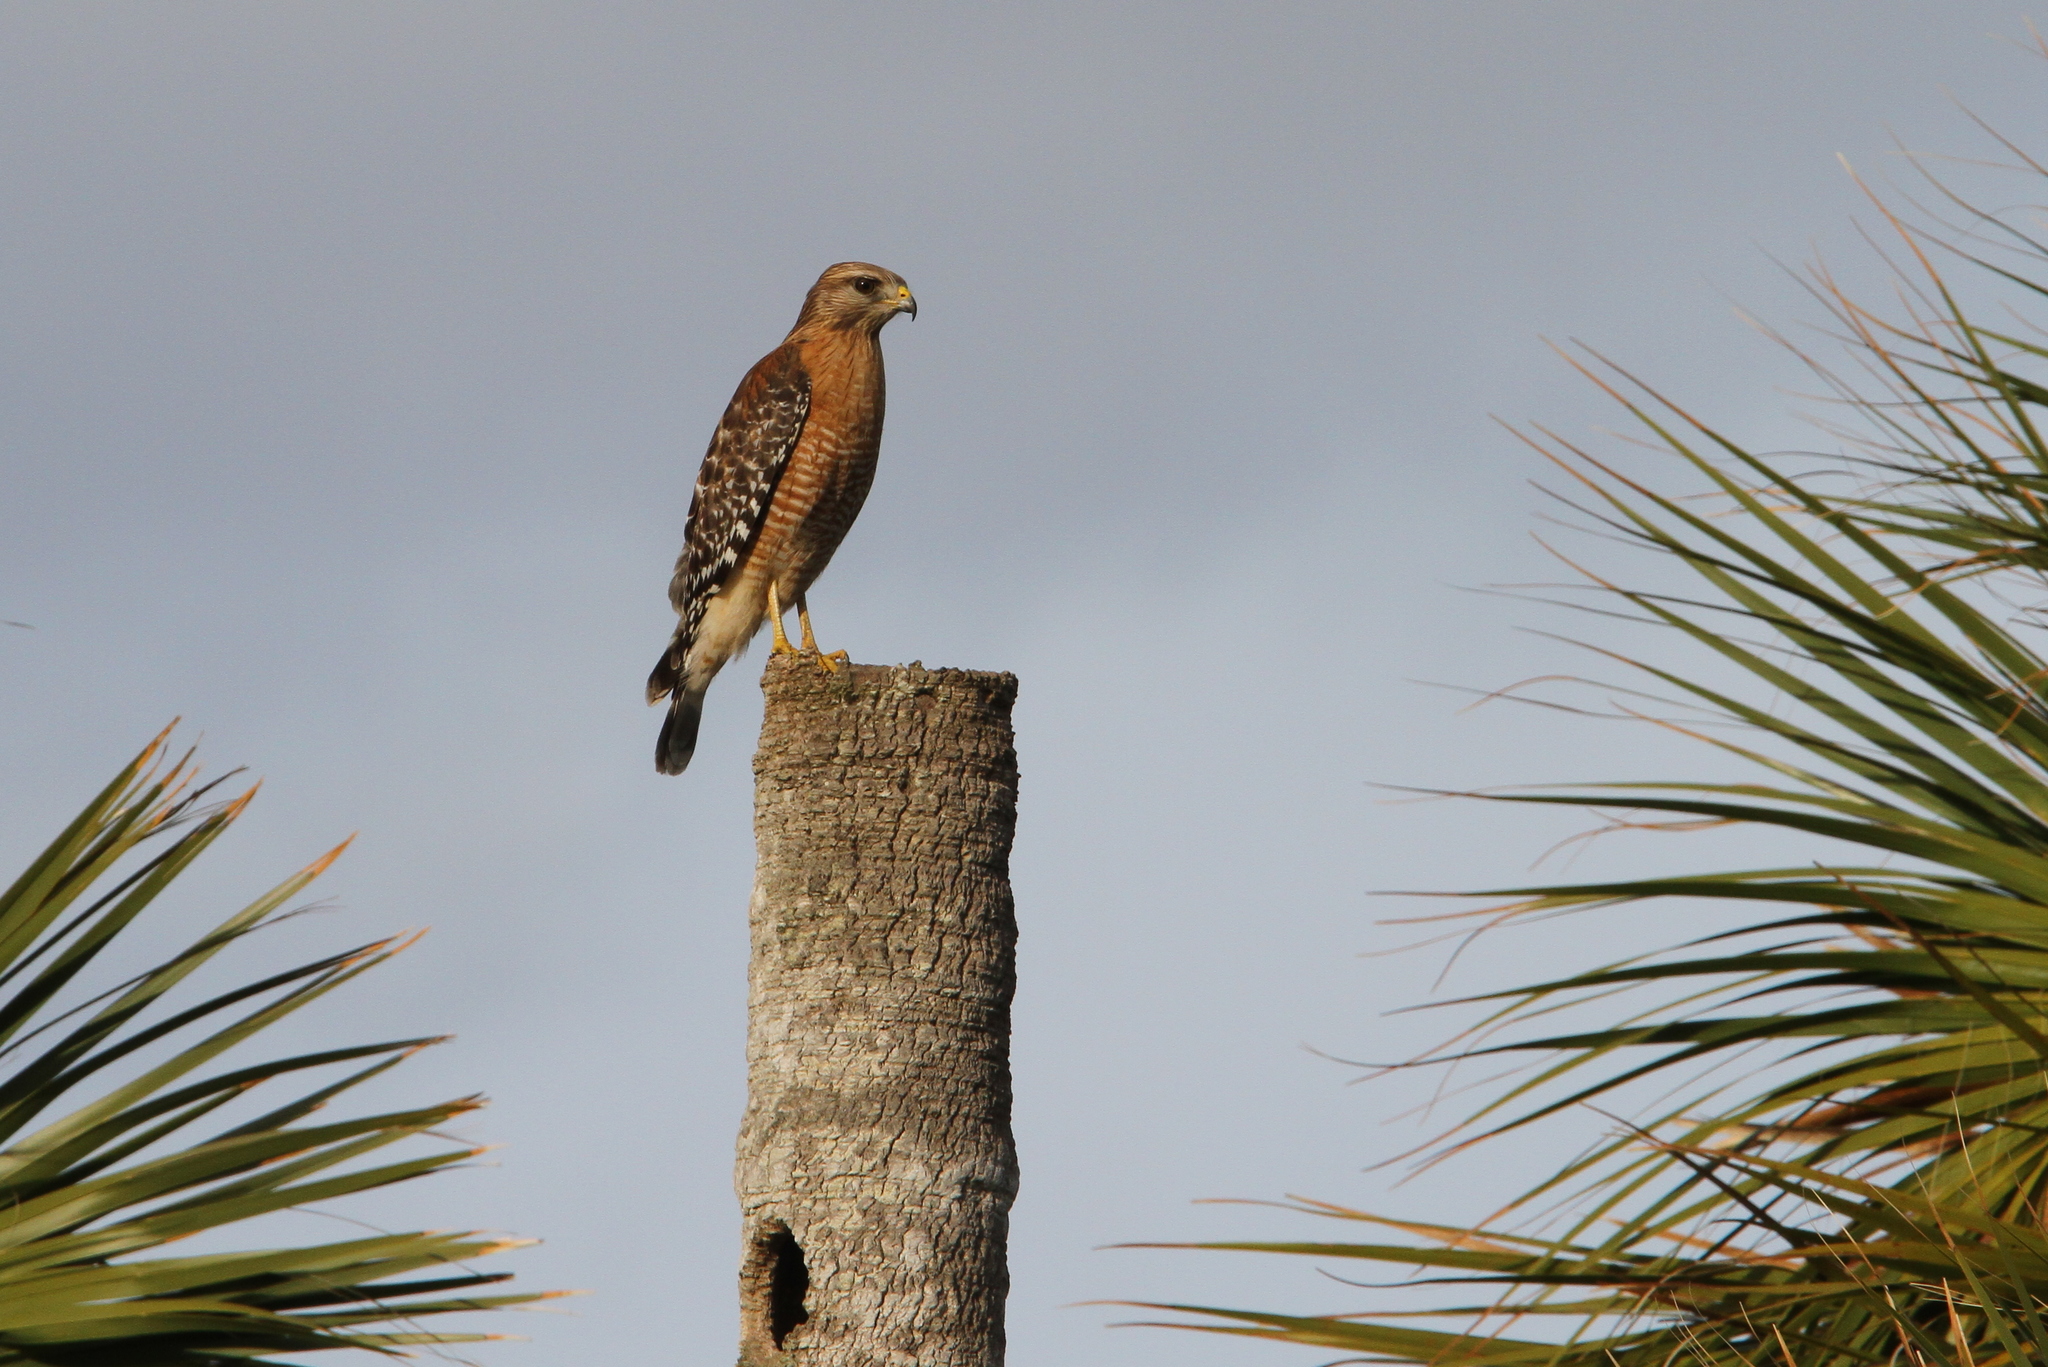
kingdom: Animalia
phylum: Chordata
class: Aves
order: Accipitriformes
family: Accipitridae
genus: Buteo
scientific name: Buteo lineatus
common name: Red-shouldered hawk
